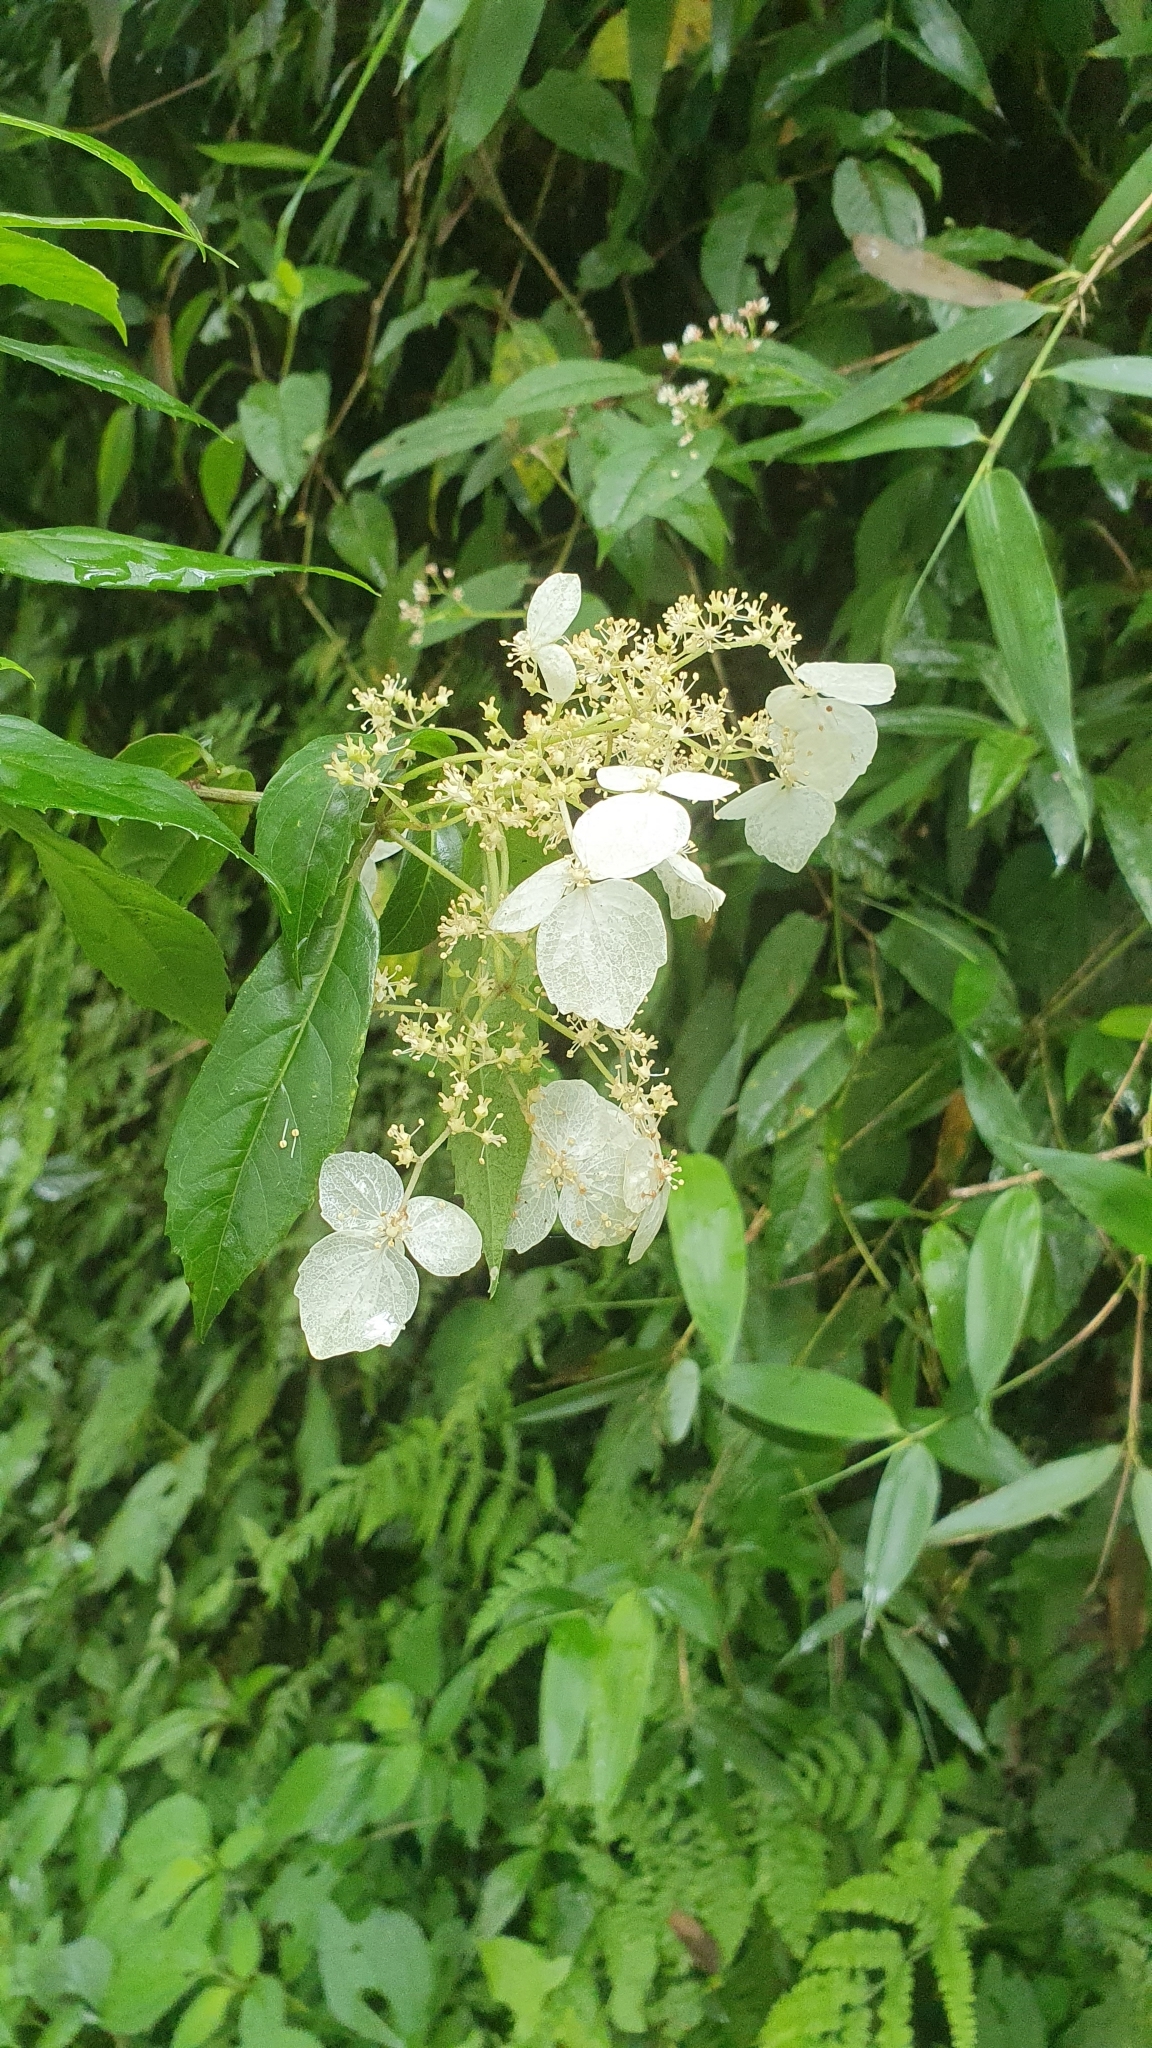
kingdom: Plantae
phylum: Tracheophyta
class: Magnoliopsida
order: Cornales
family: Hydrangeaceae
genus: Hydrangea
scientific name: Hydrangea chinensis
